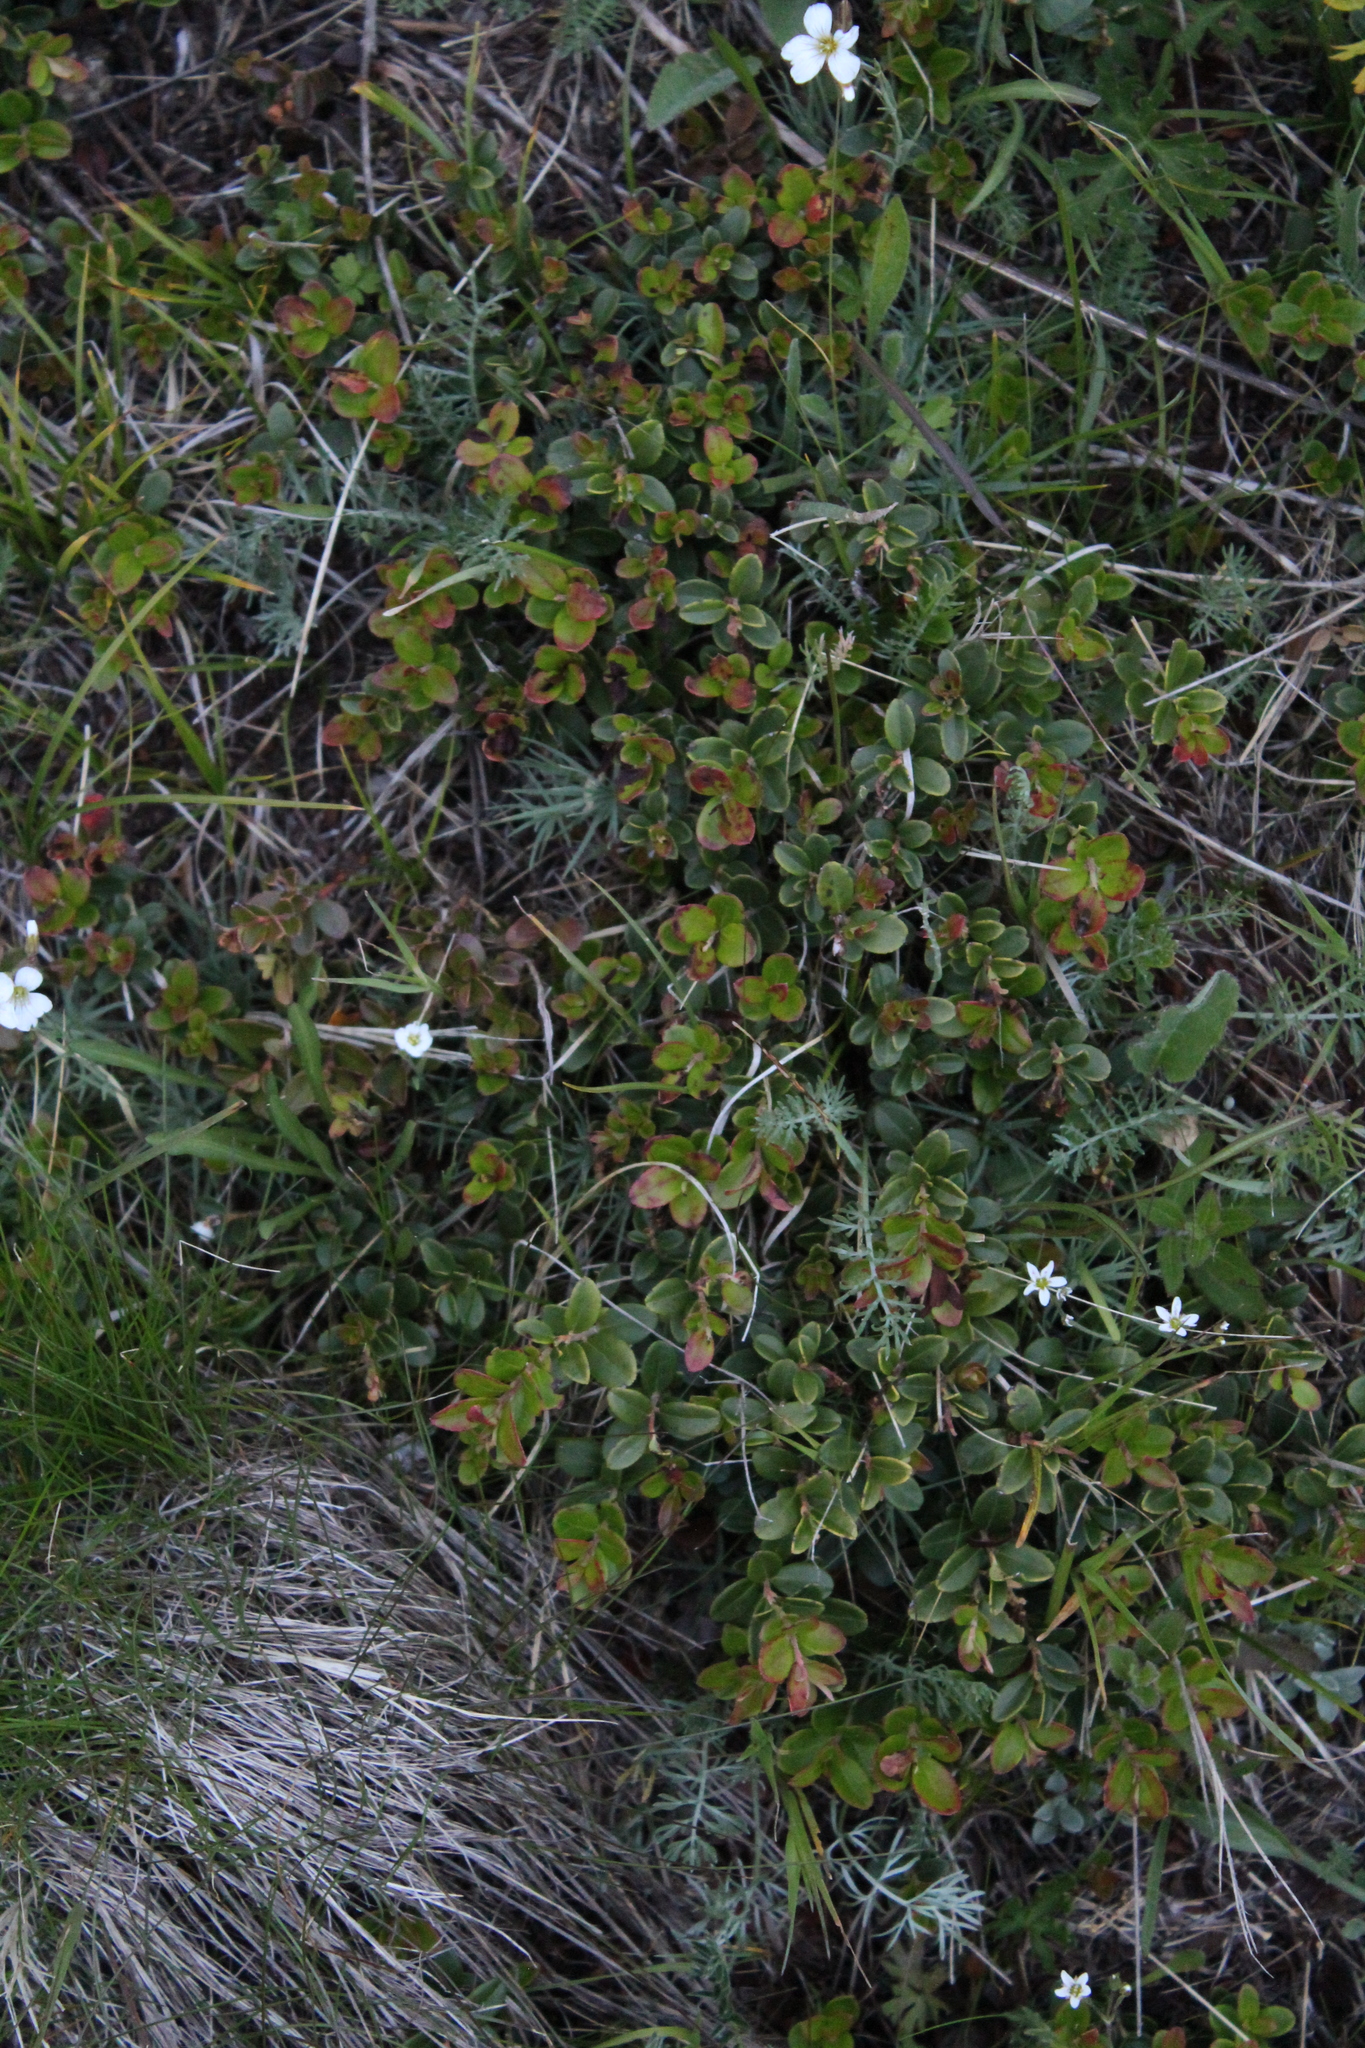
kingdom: Plantae
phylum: Tracheophyta
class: Magnoliopsida
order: Ericales
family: Ericaceae
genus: Vaccinium
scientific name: Vaccinium vitis-idaea
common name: Cowberry
